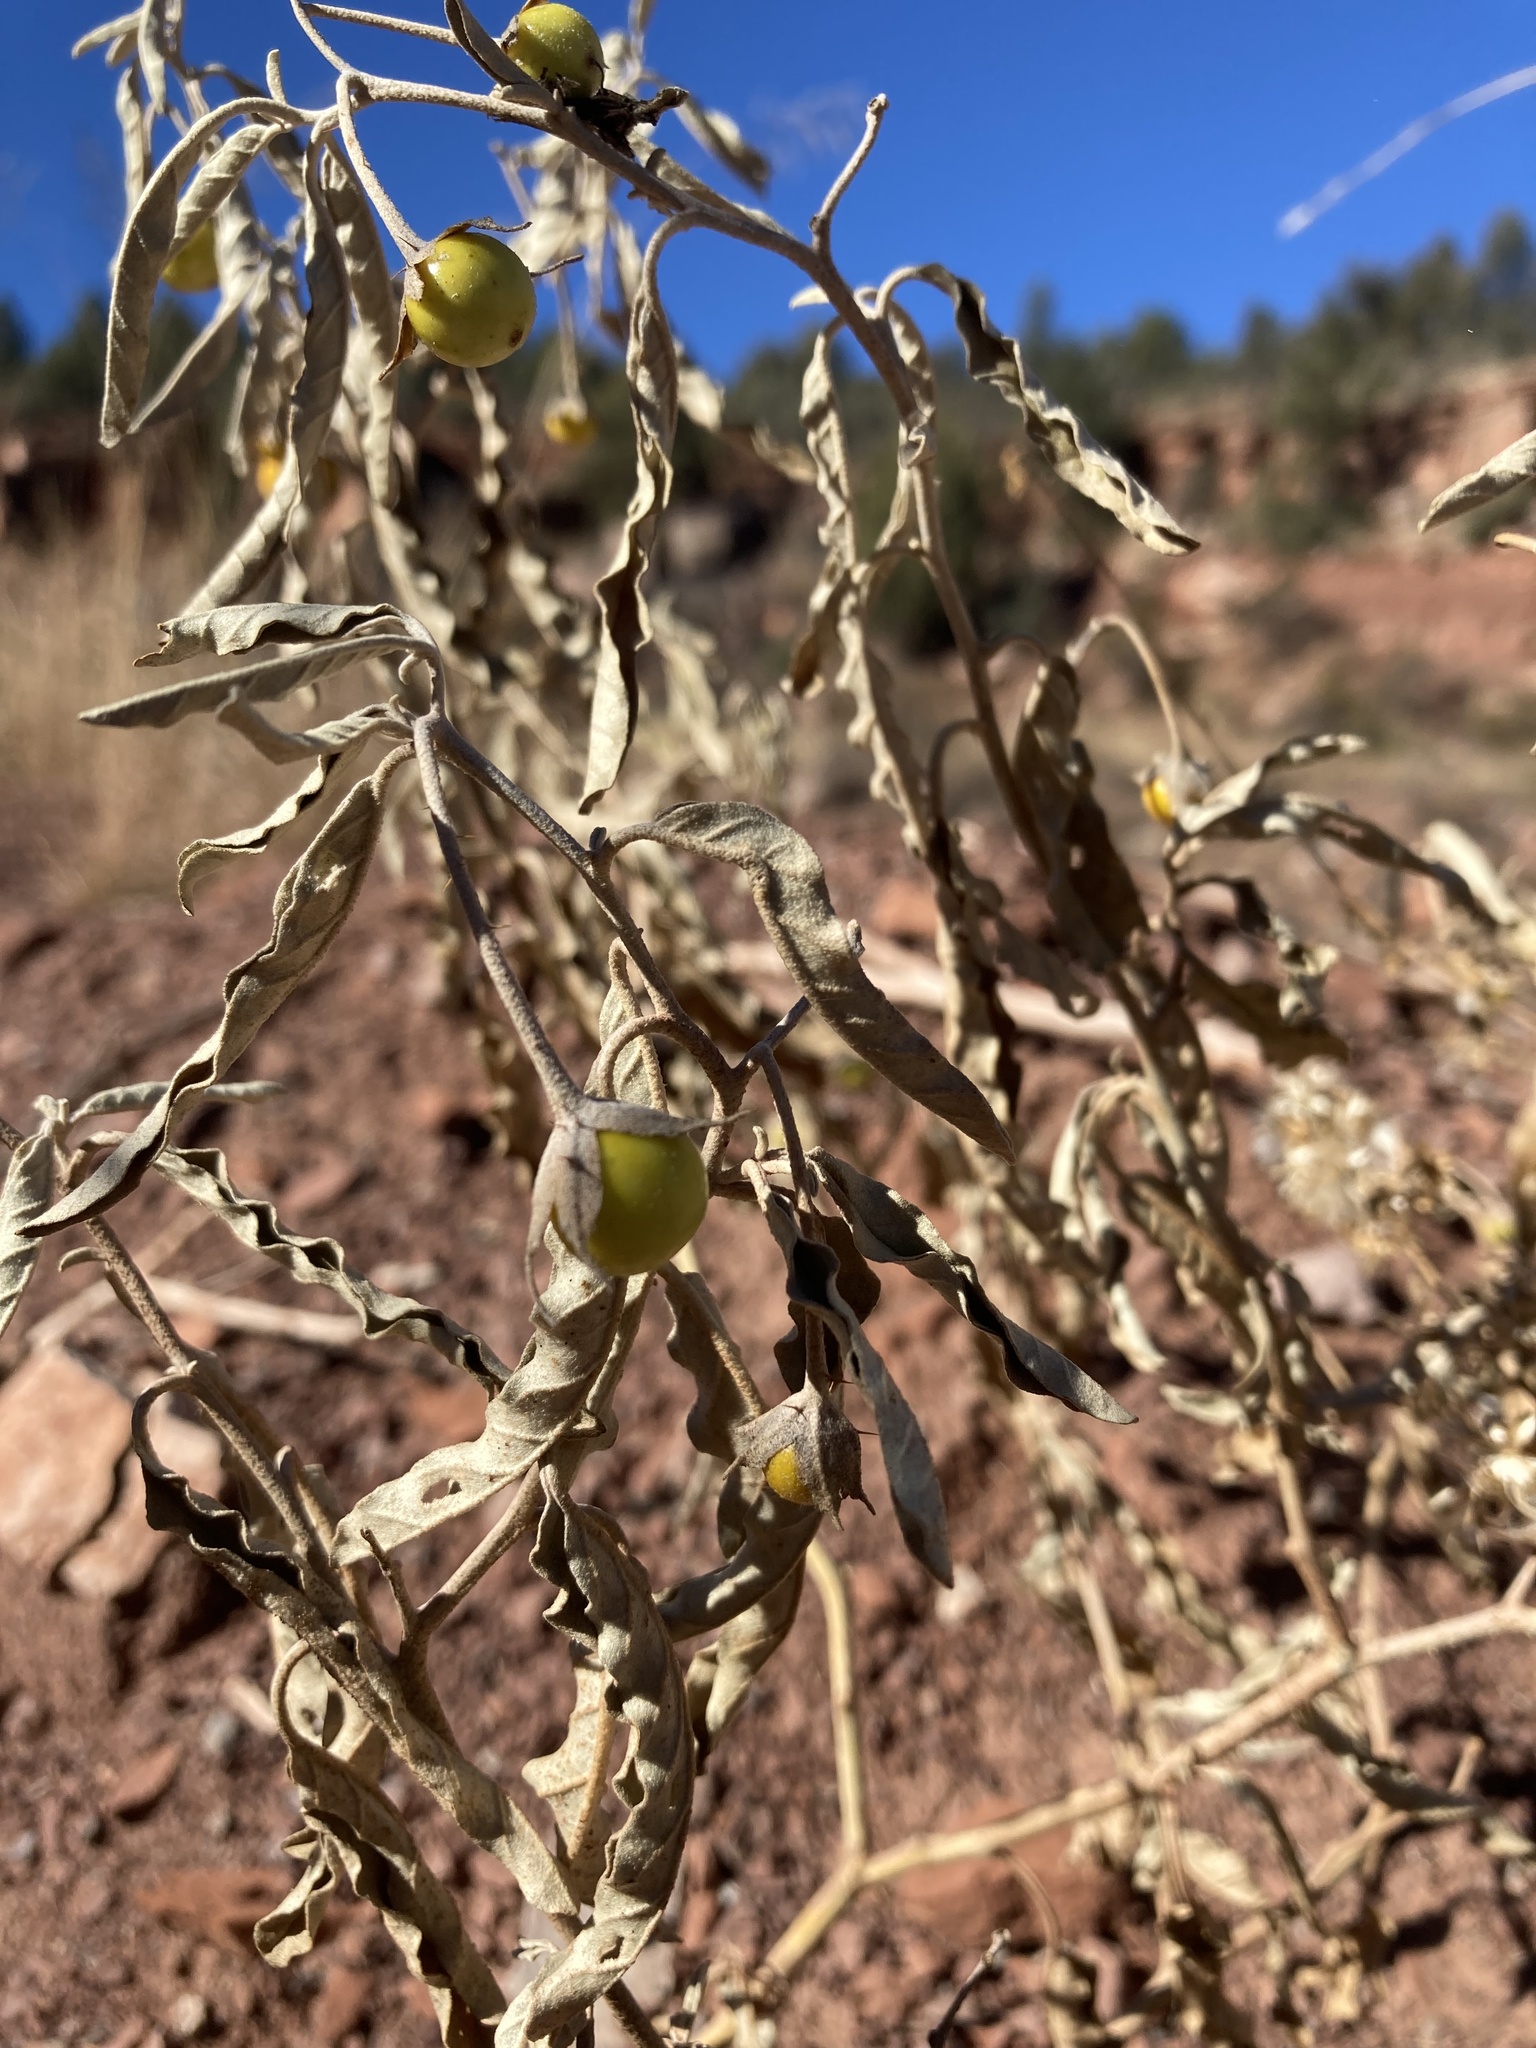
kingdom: Plantae
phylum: Tracheophyta
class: Magnoliopsida
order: Solanales
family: Solanaceae
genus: Solanum
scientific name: Solanum elaeagnifolium
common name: Silverleaf nightshade
